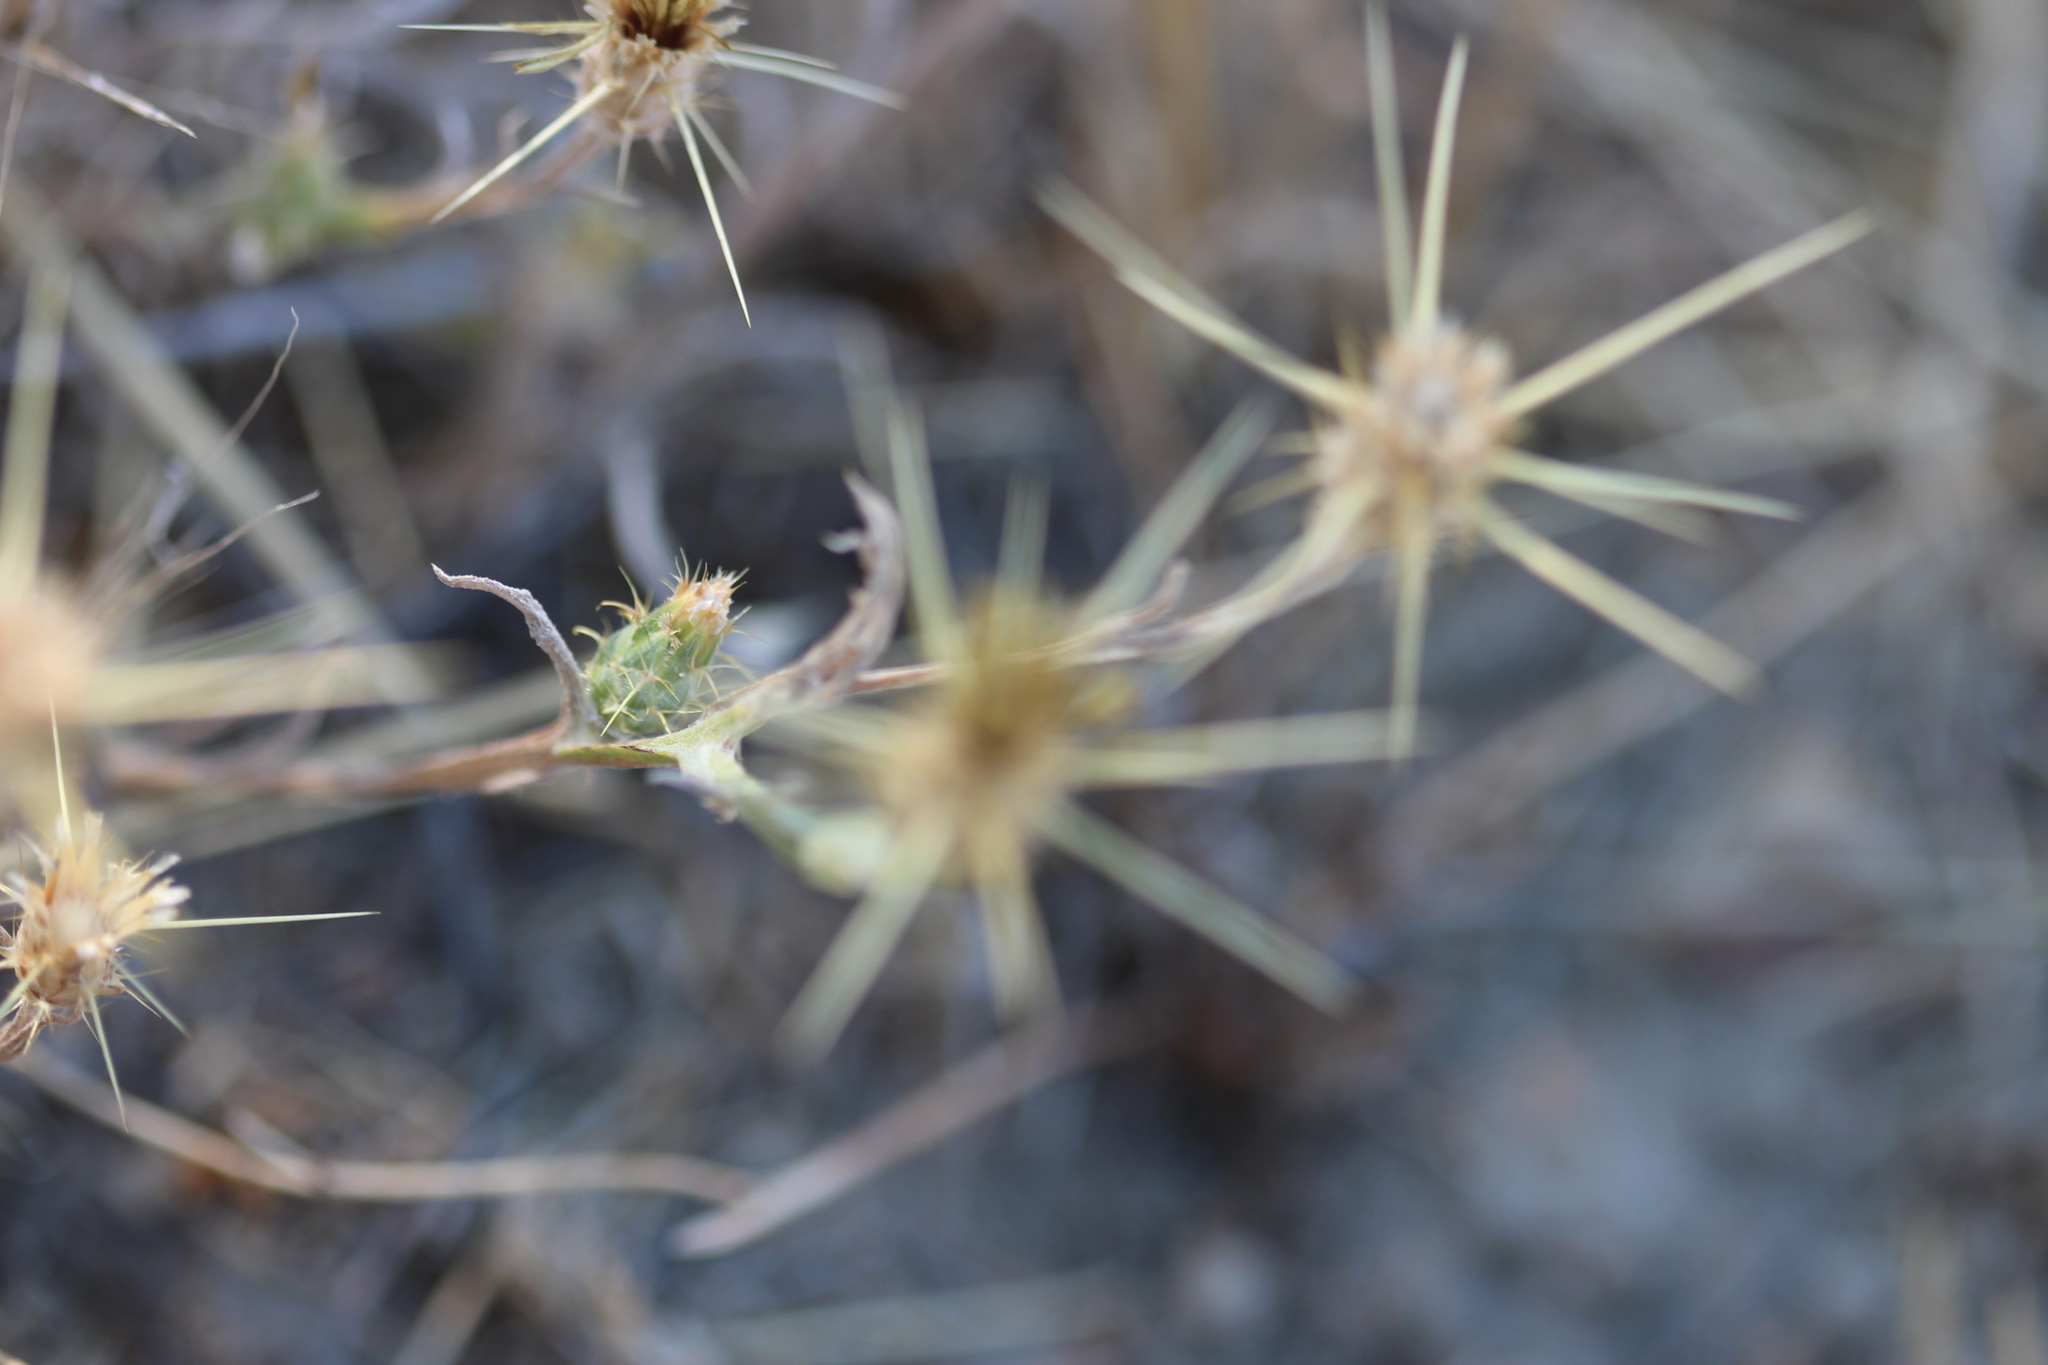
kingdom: Plantae
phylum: Tracheophyta
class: Magnoliopsida
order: Asterales
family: Asteraceae
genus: Centaurea
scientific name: Centaurea solstitialis
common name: Yellow star-thistle
